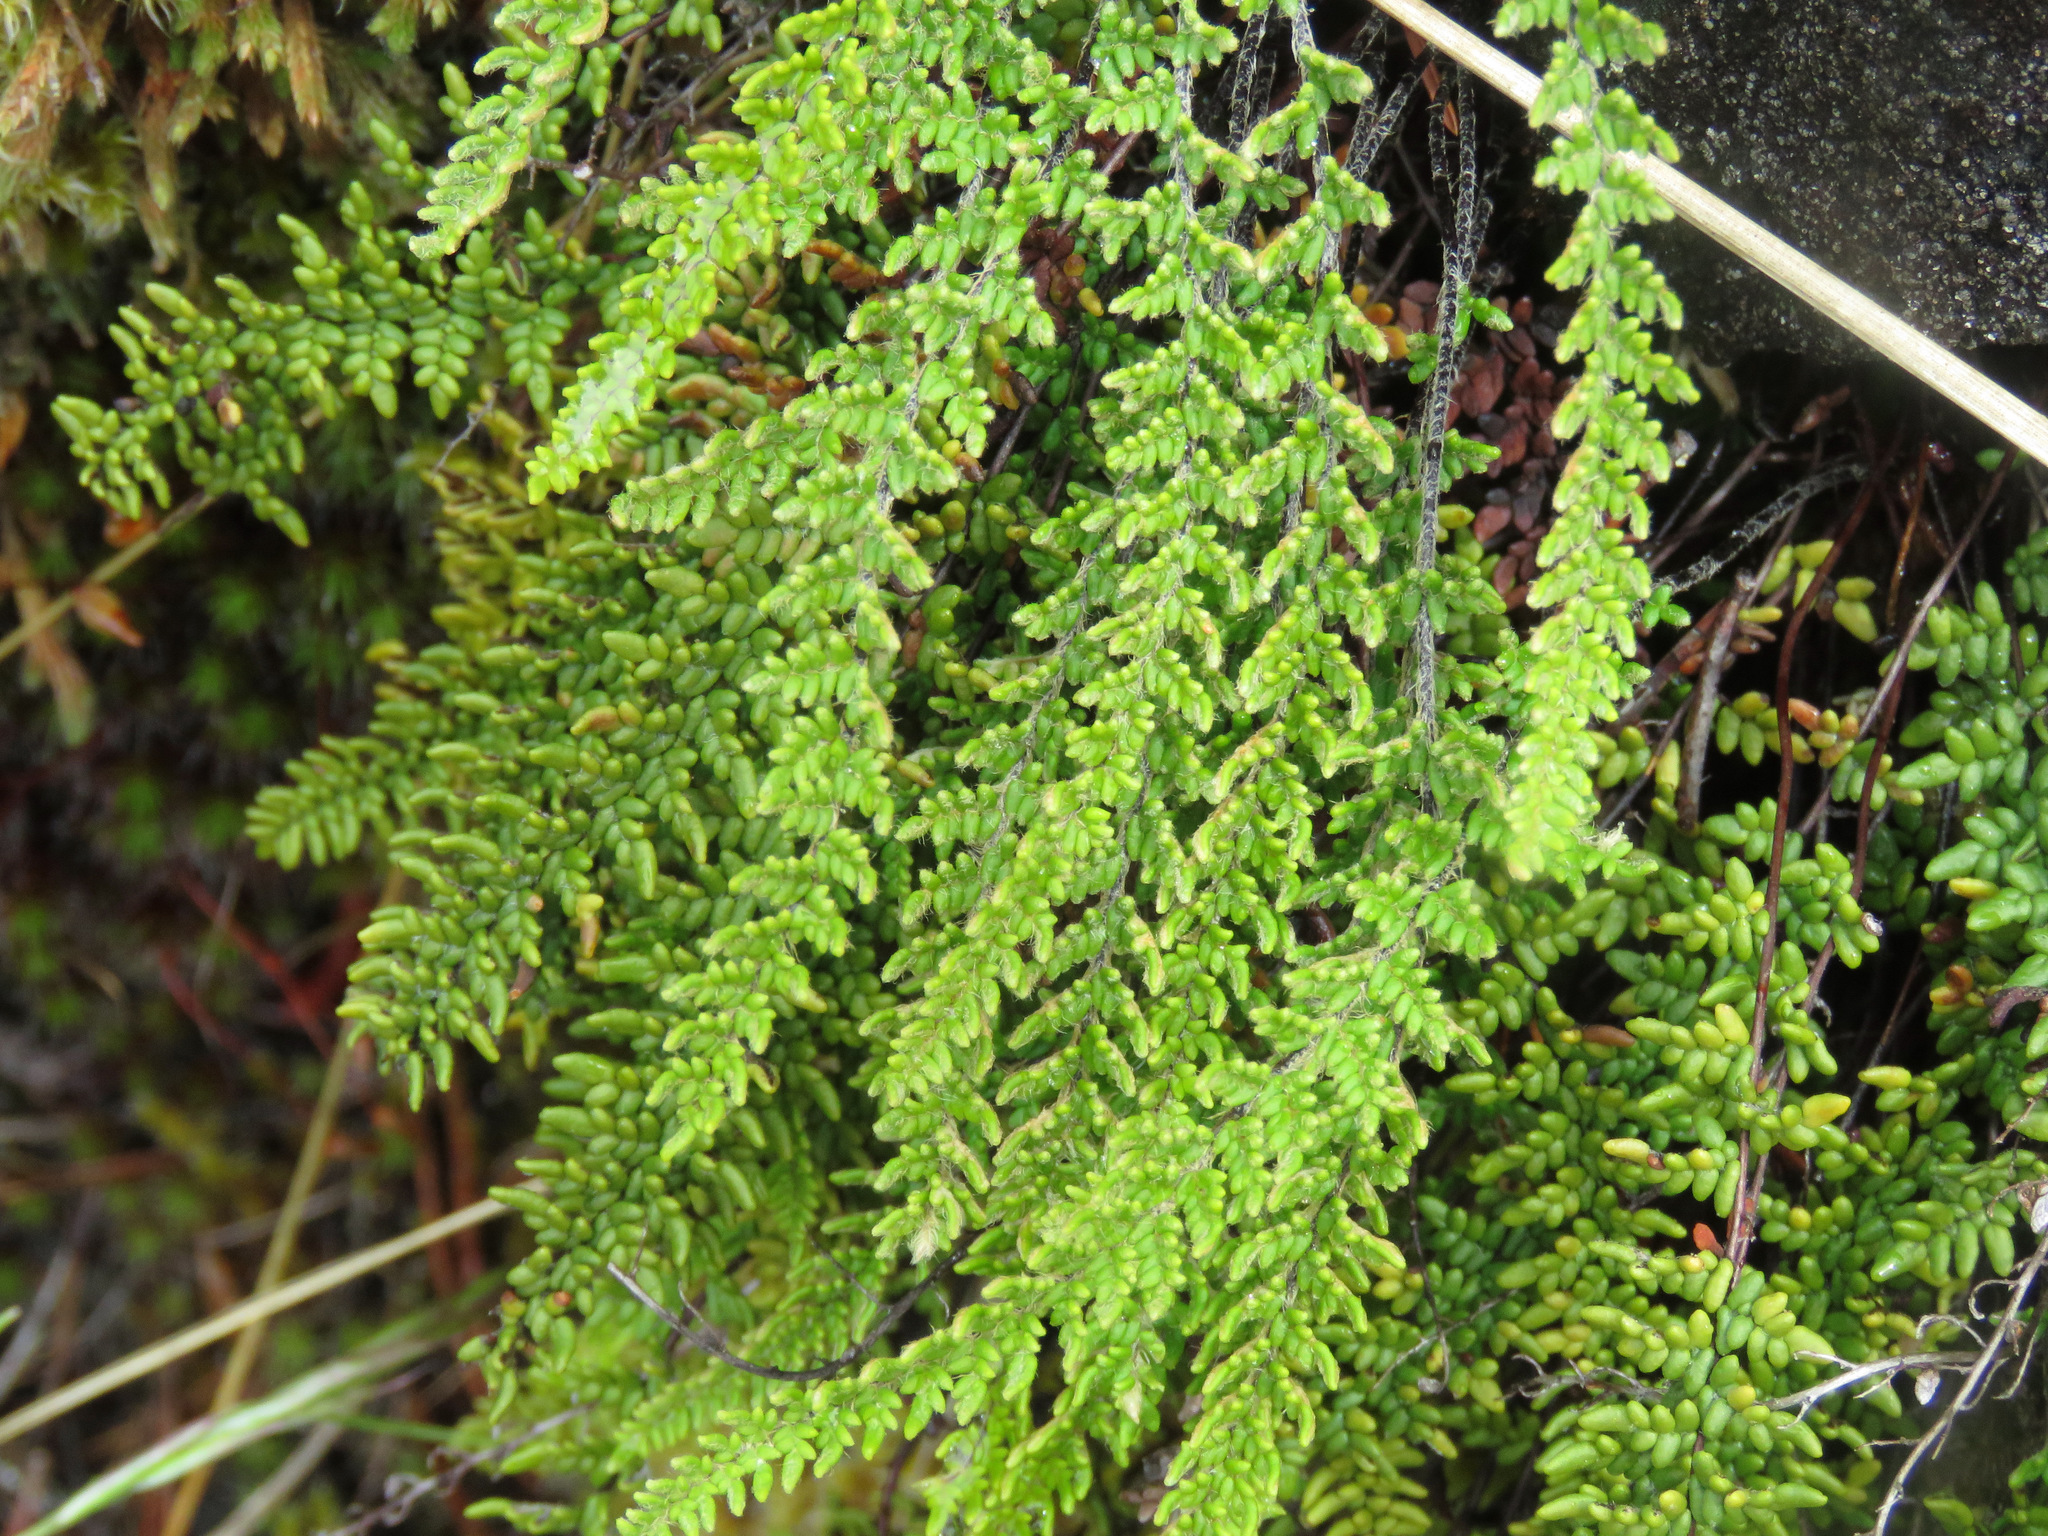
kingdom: Plantae
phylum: Tracheophyta
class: Polypodiopsida
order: Polypodiales
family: Pteridaceae
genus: Myriopteris
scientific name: Myriopteris gracillima
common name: Lace fern
